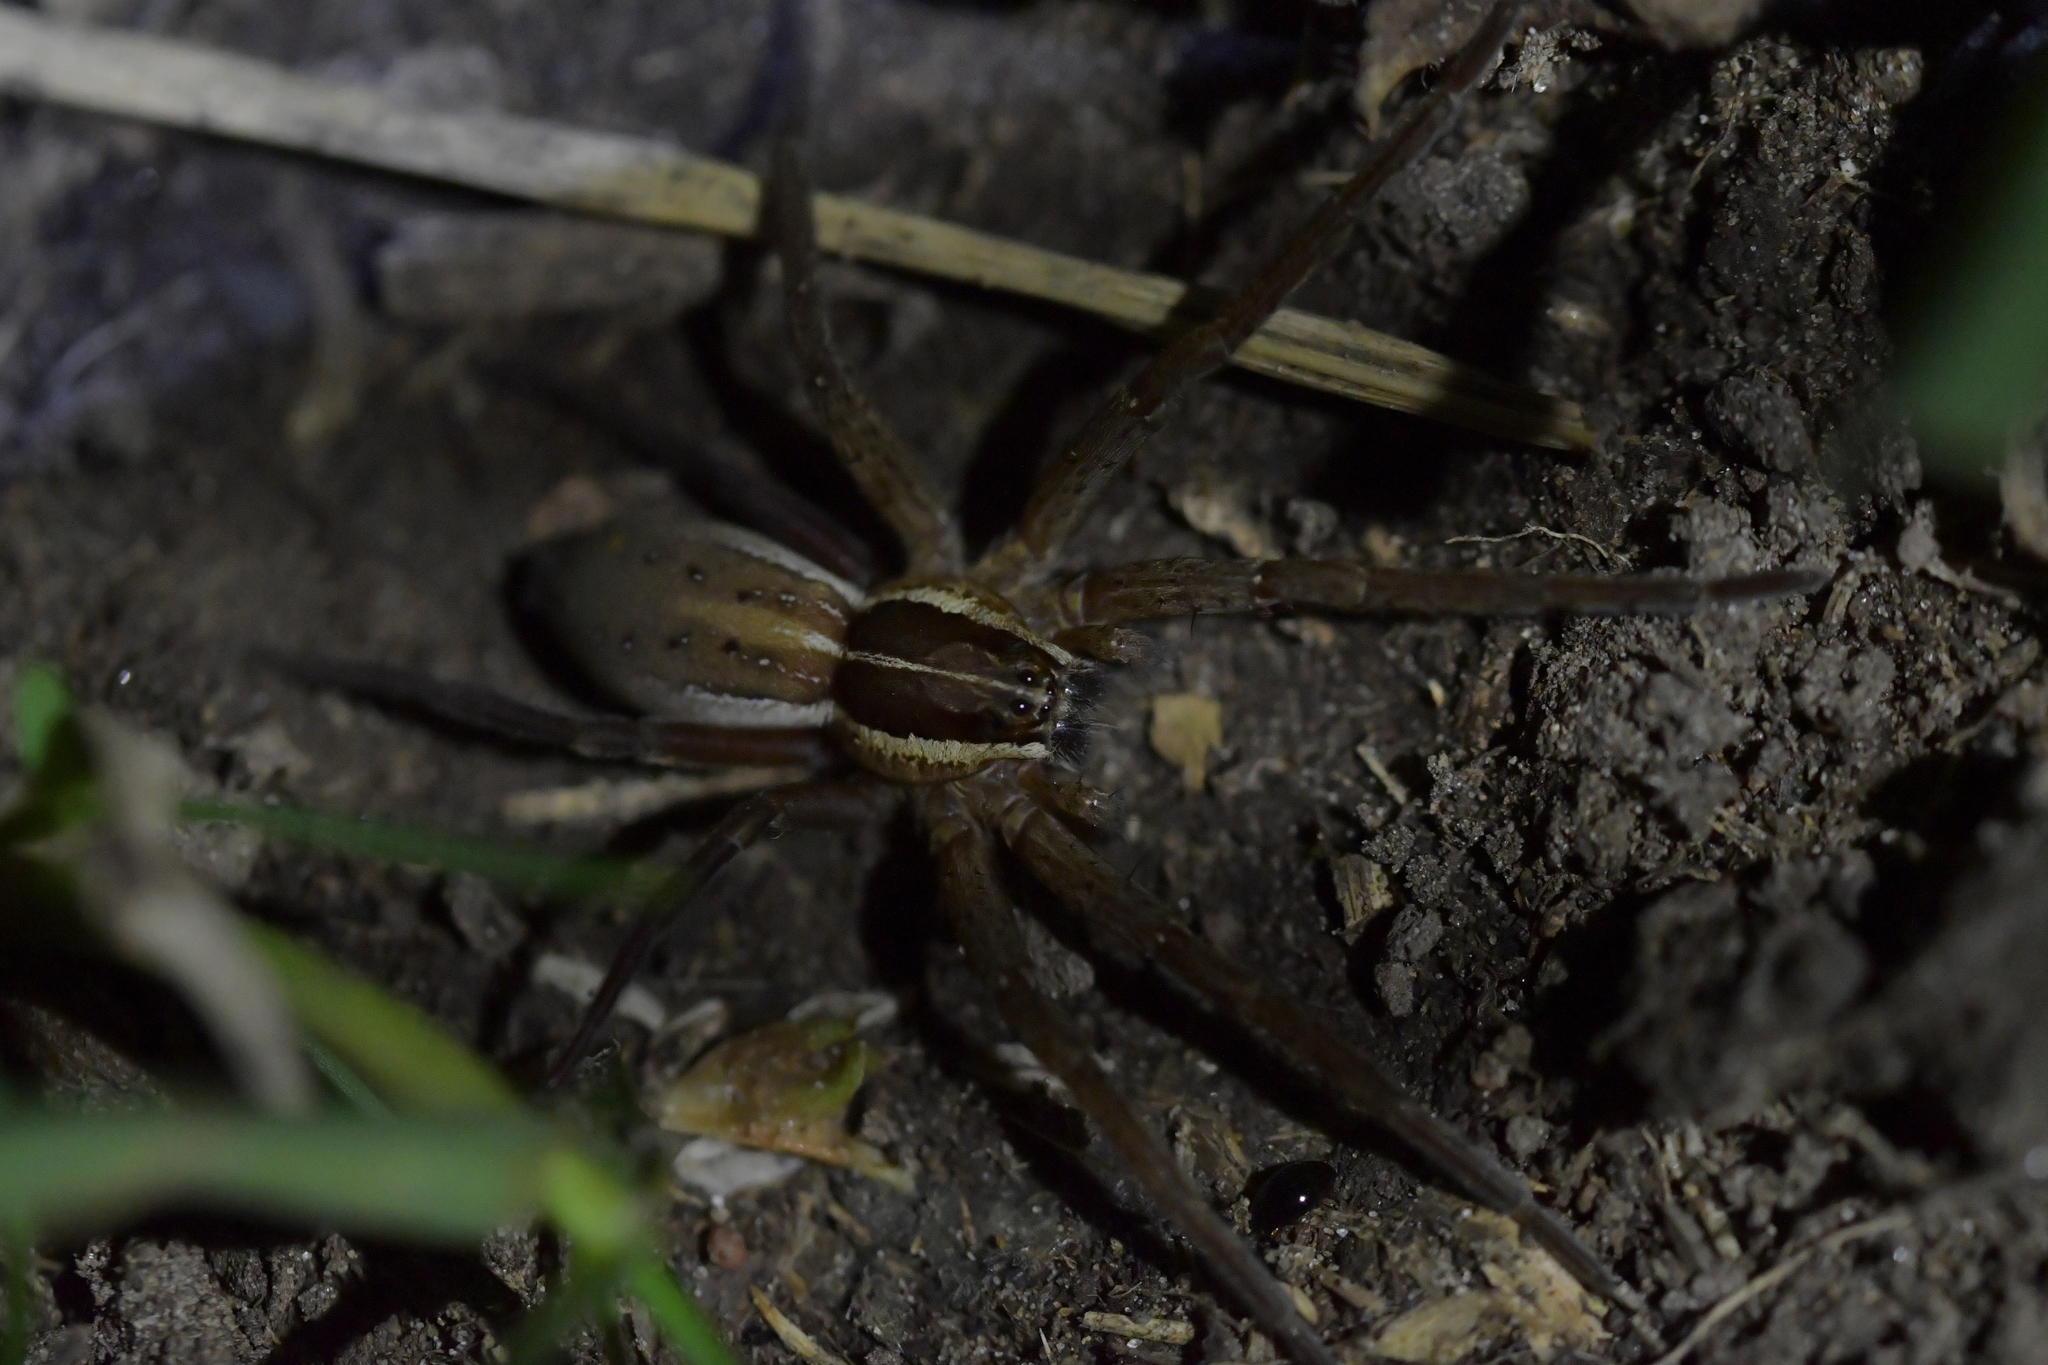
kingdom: Animalia
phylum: Arthropoda
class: Arachnida
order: Araneae
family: Pisauridae
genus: Dolomedes
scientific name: Dolomedes minor
